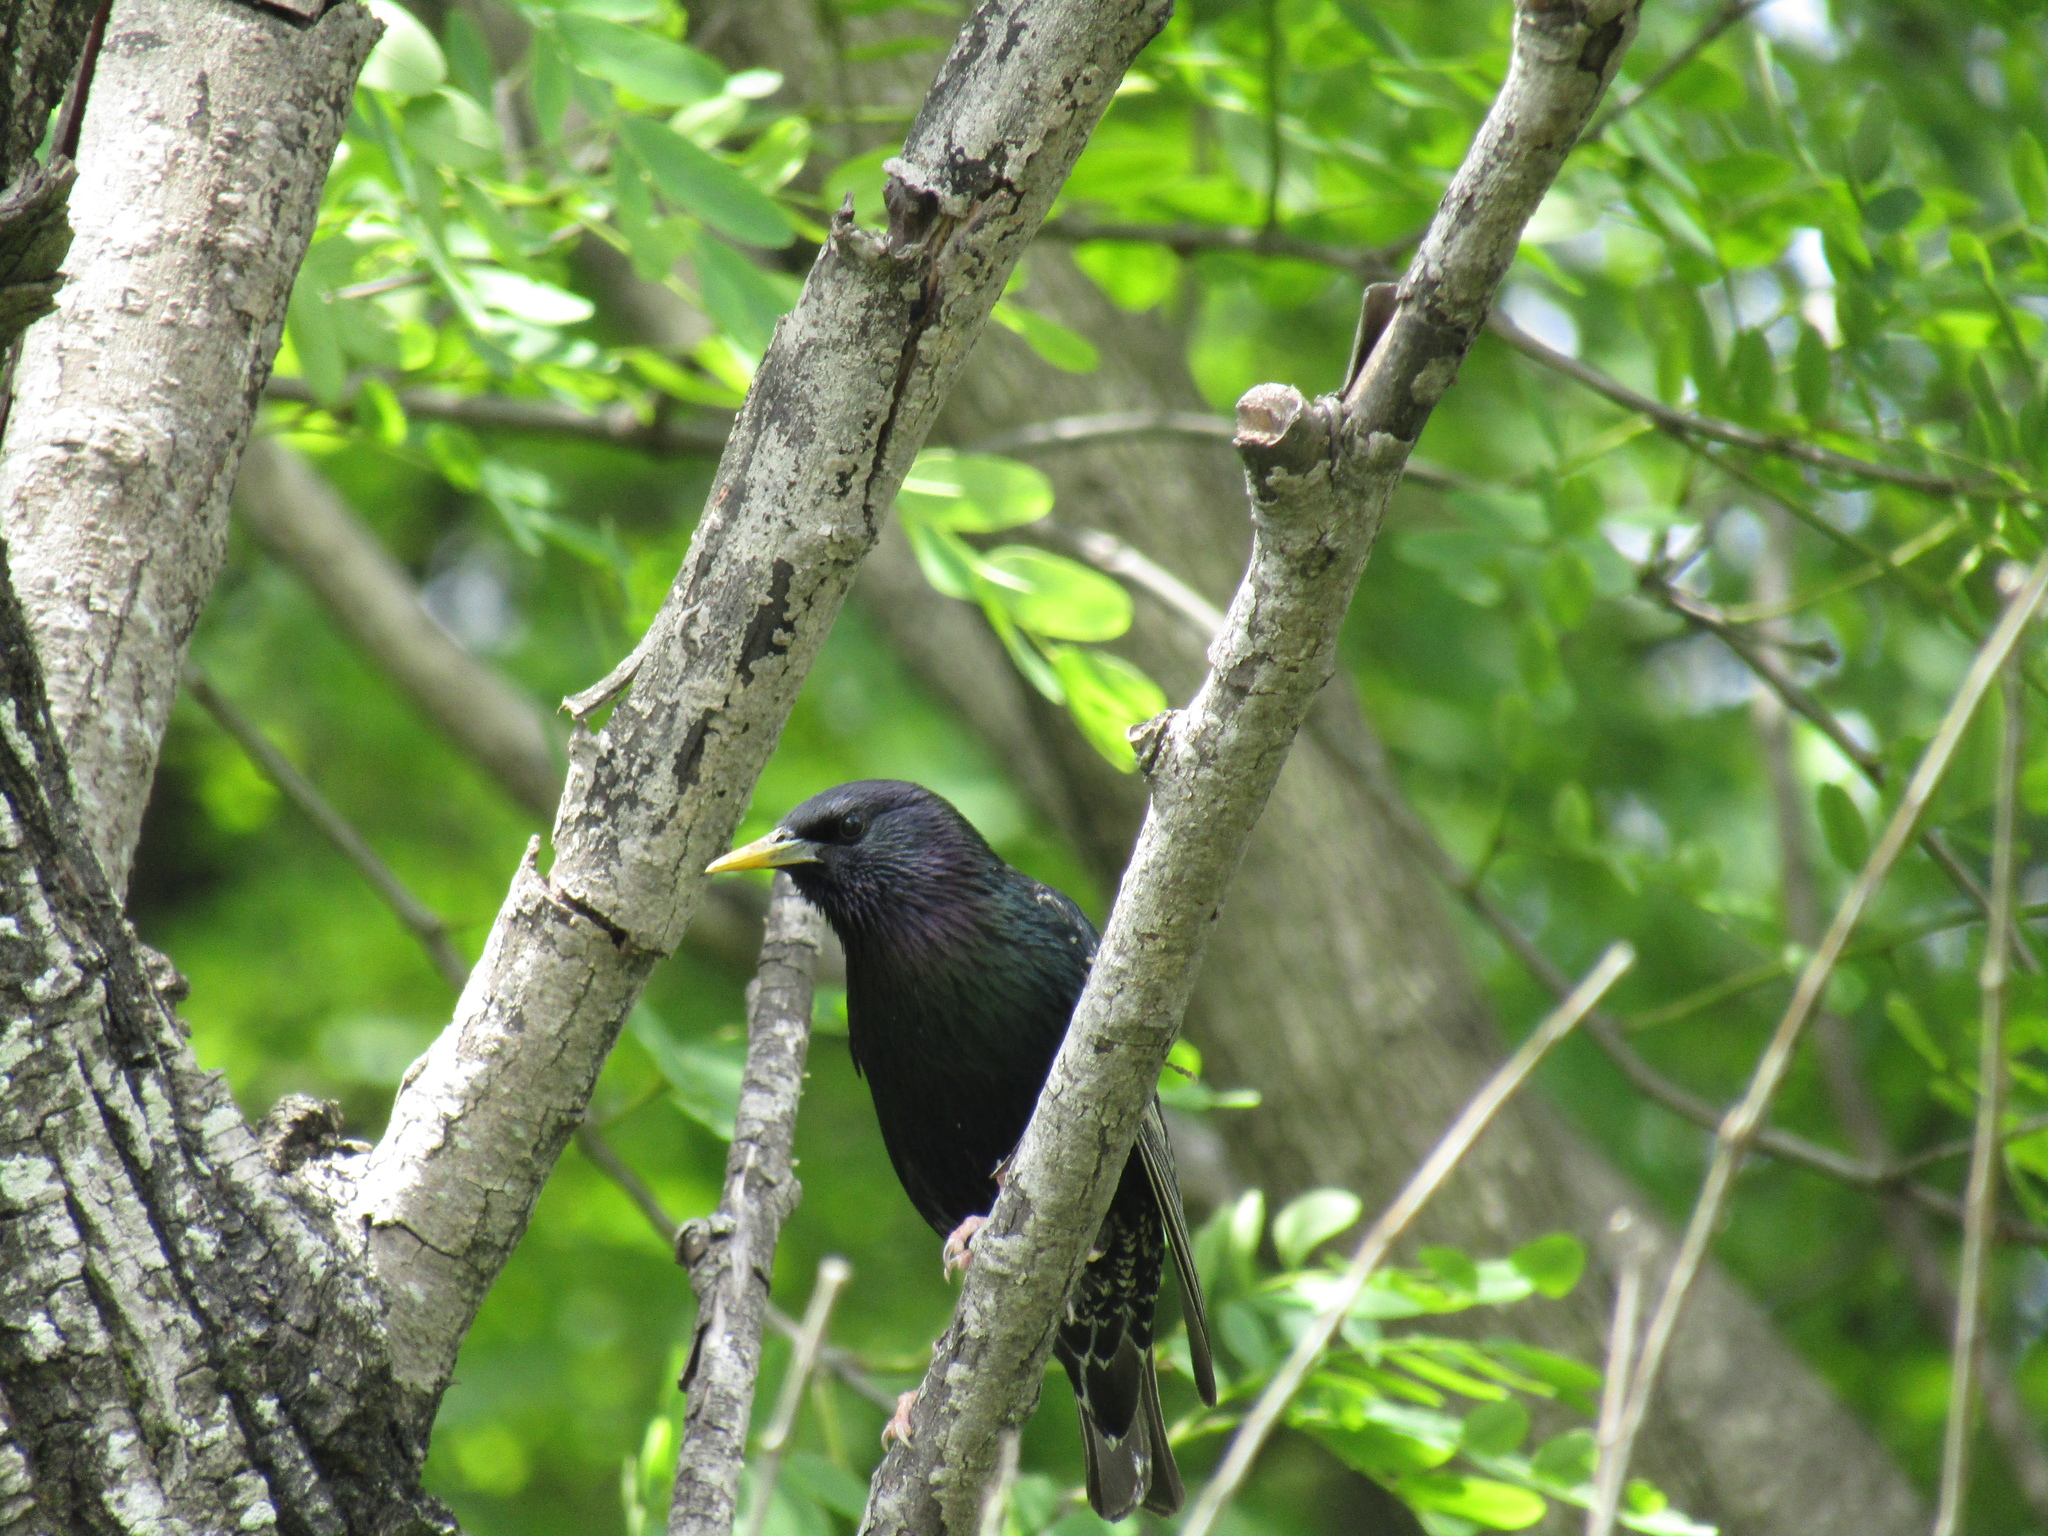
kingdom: Animalia
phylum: Chordata
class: Aves
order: Passeriformes
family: Sturnidae
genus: Sturnus
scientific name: Sturnus vulgaris
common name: Common starling
